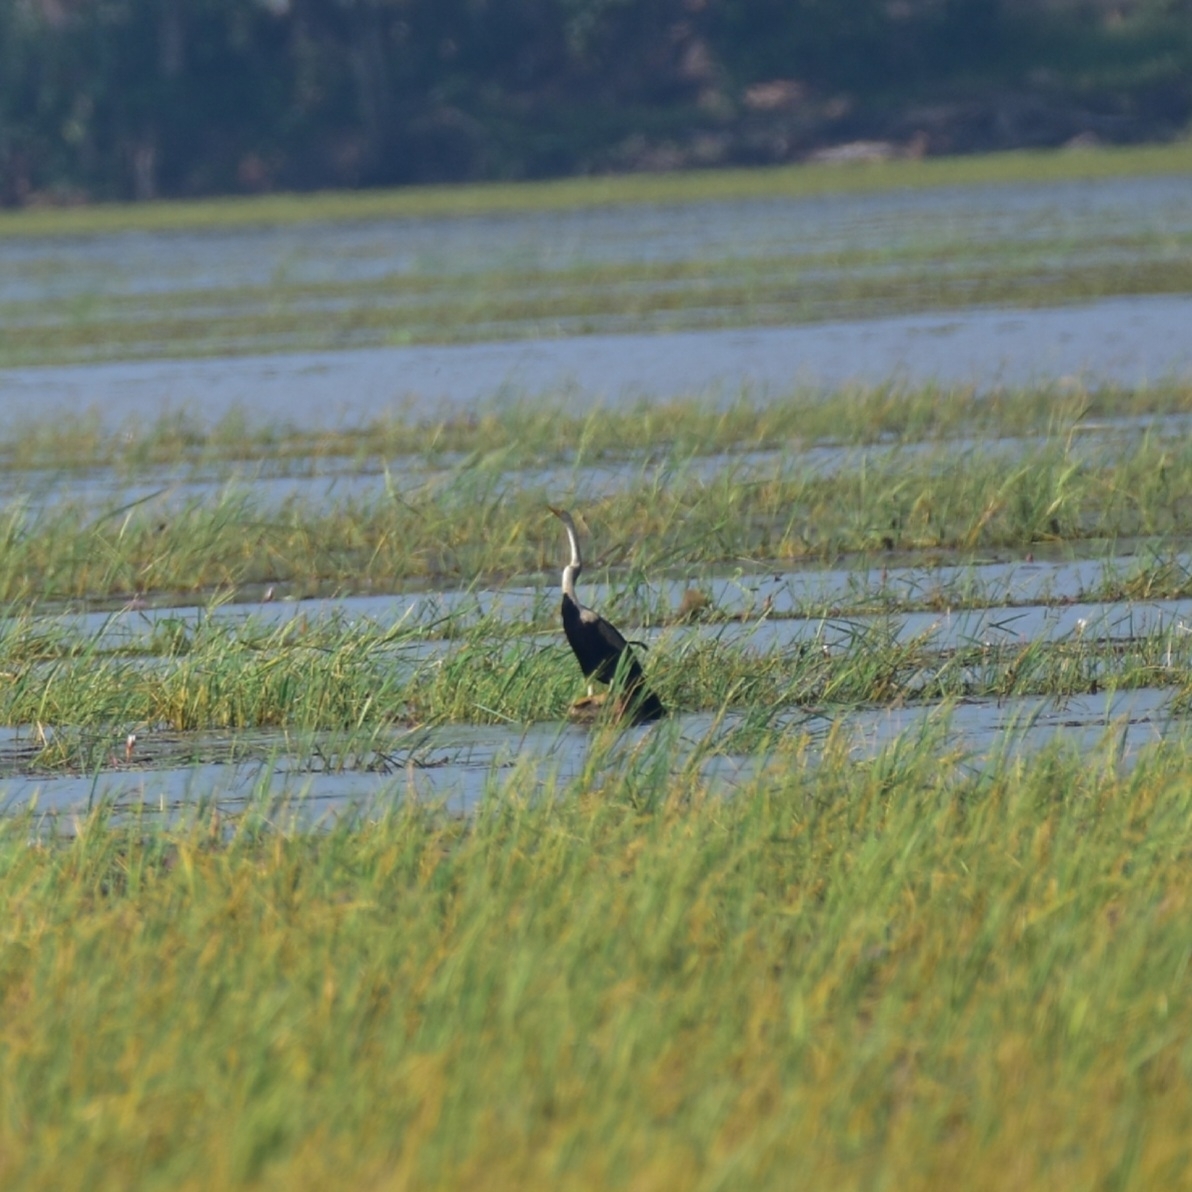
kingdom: Animalia
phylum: Chordata
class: Aves
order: Suliformes
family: Anhingidae
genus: Anhinga
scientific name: Anhinga melanogaster
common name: Oriental darter
